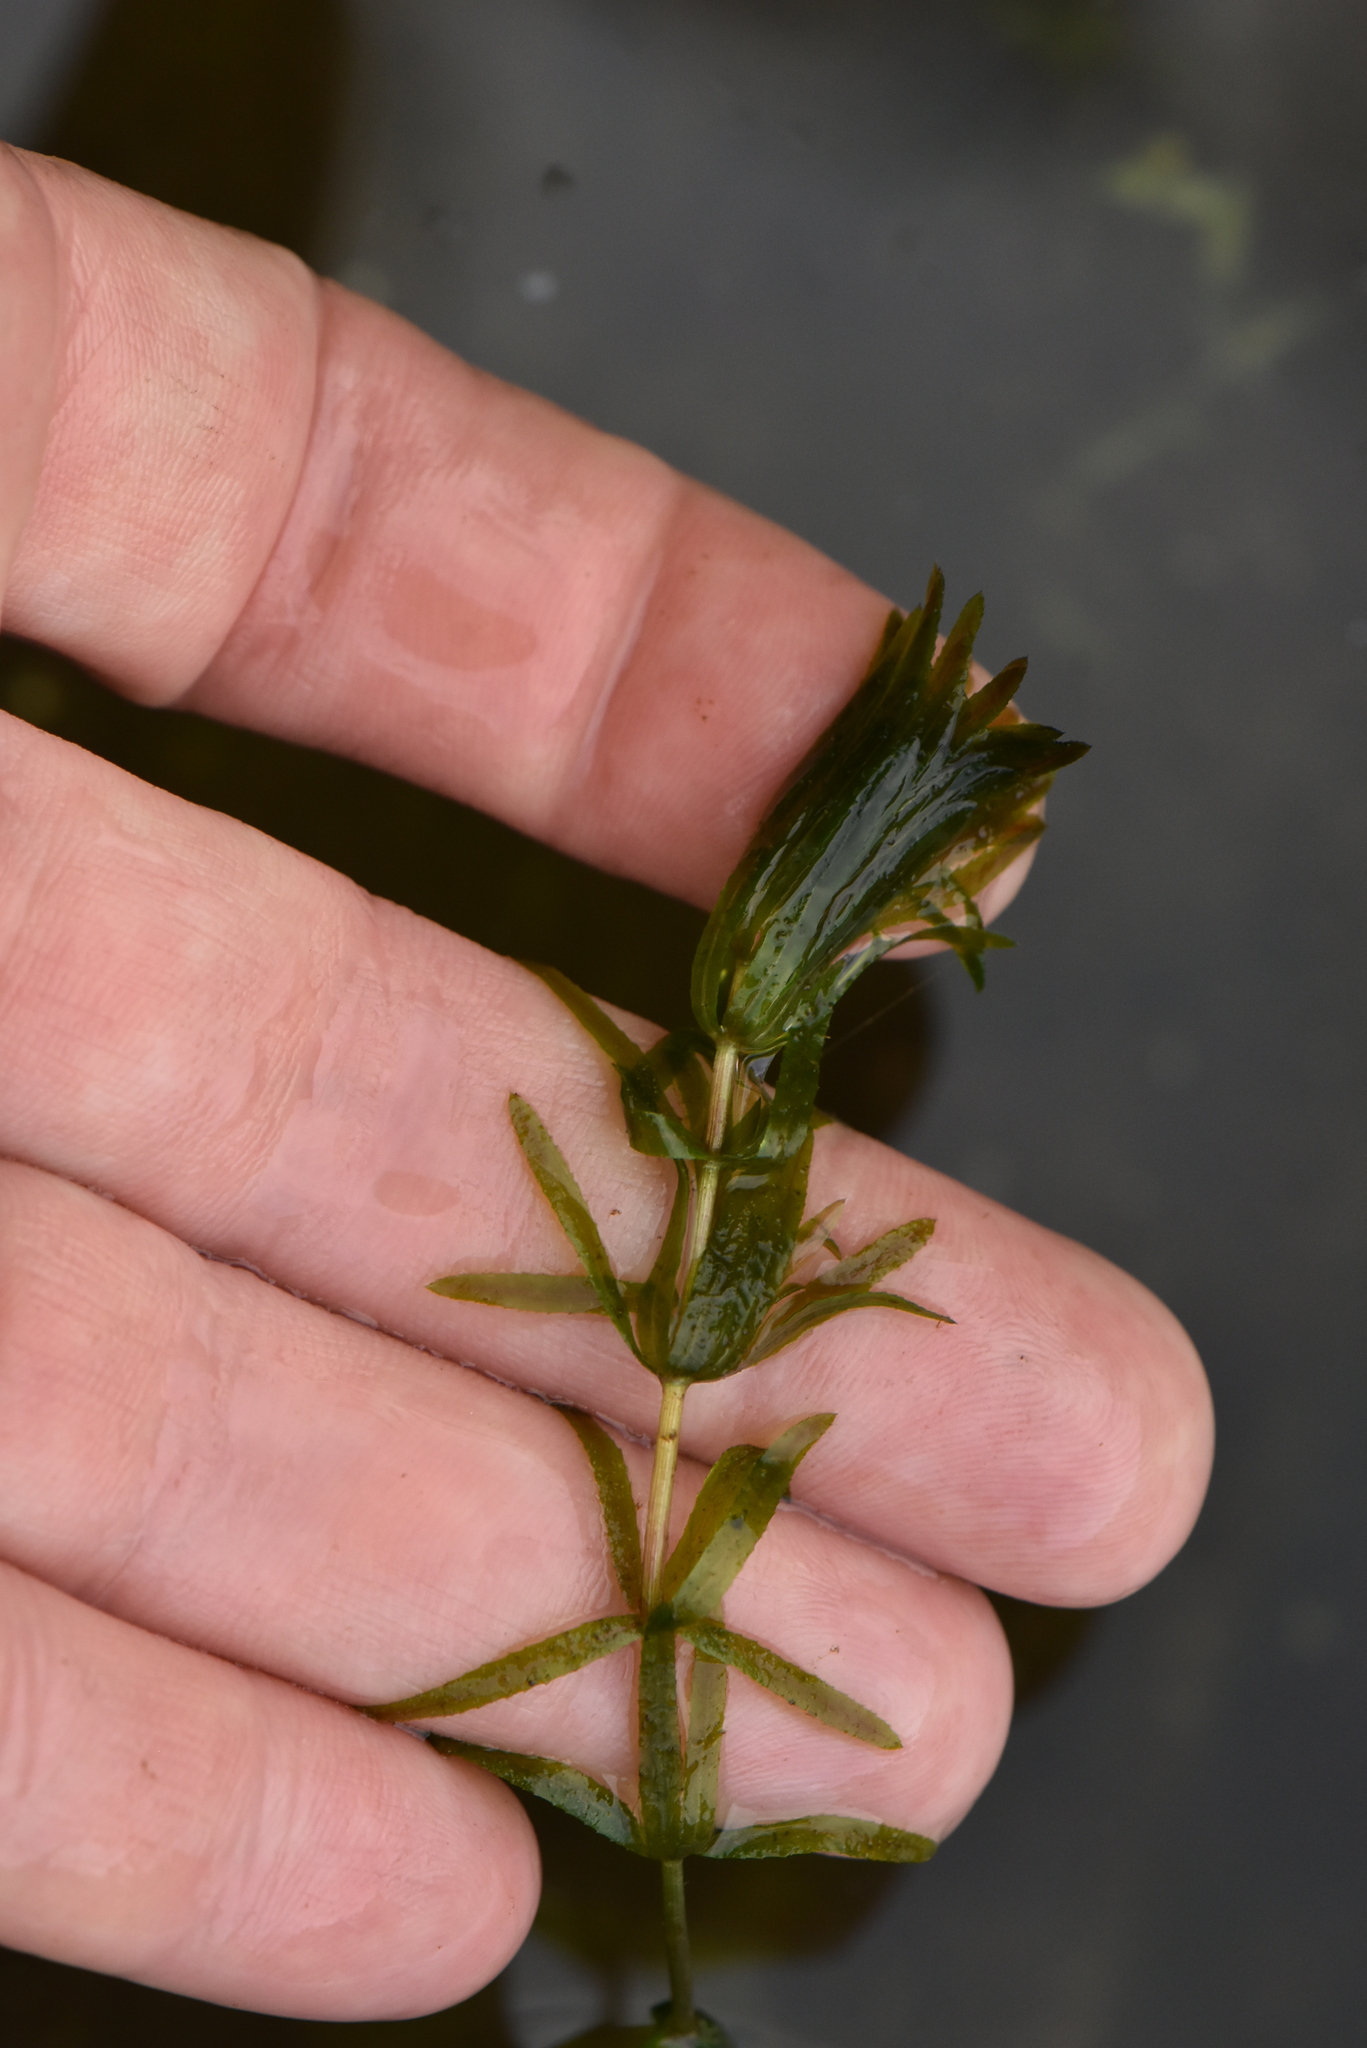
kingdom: Plantae
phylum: Tracheophyta
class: Liliopsida
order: Alismatales
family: Hydrocharitaceae
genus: Hydrilla
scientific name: Hydrilla verticillata
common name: Florida-elodea
